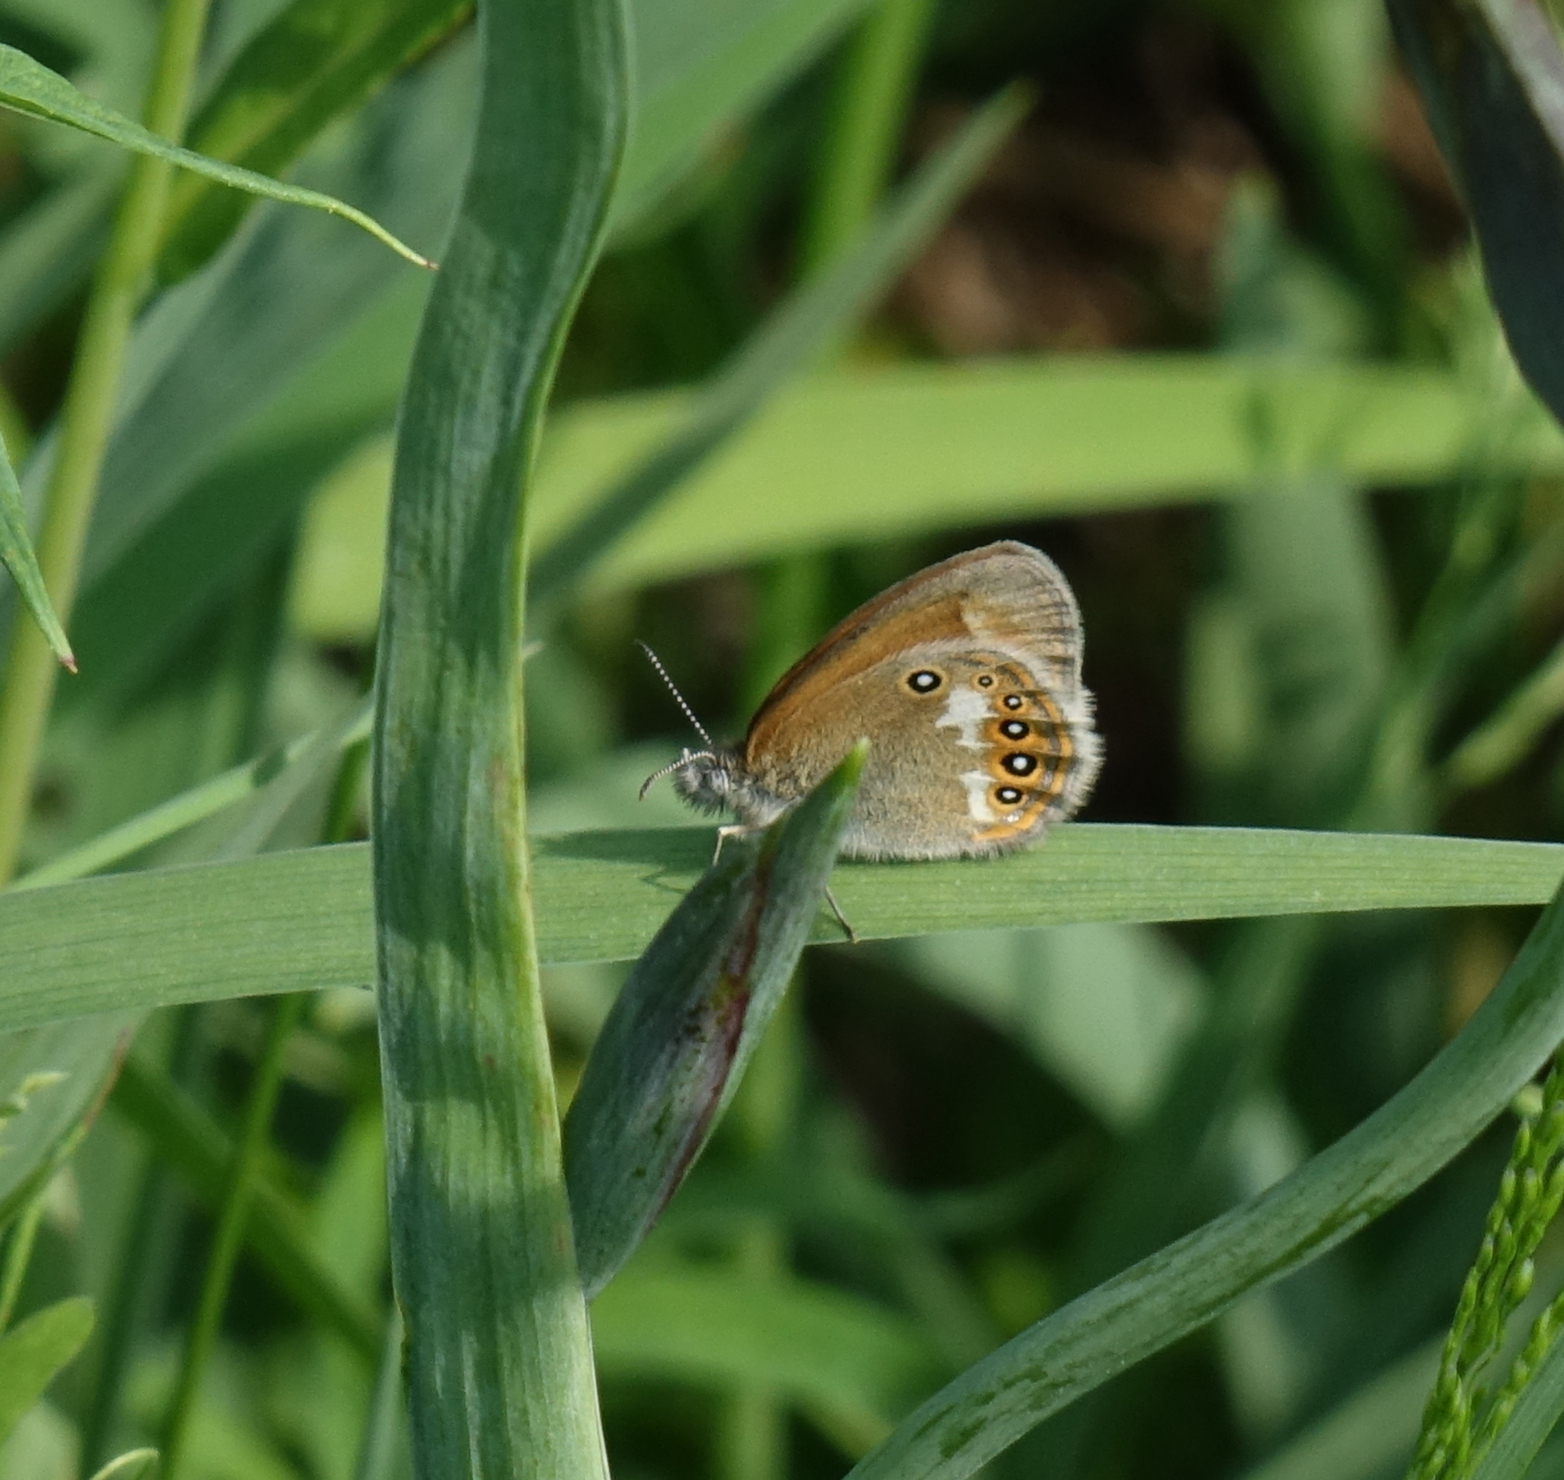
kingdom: Animalia
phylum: Arthropoda
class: Insecta
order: Lepidoptera
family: Nymphalidae
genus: Coenonympha
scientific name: Coenonympha iphis
